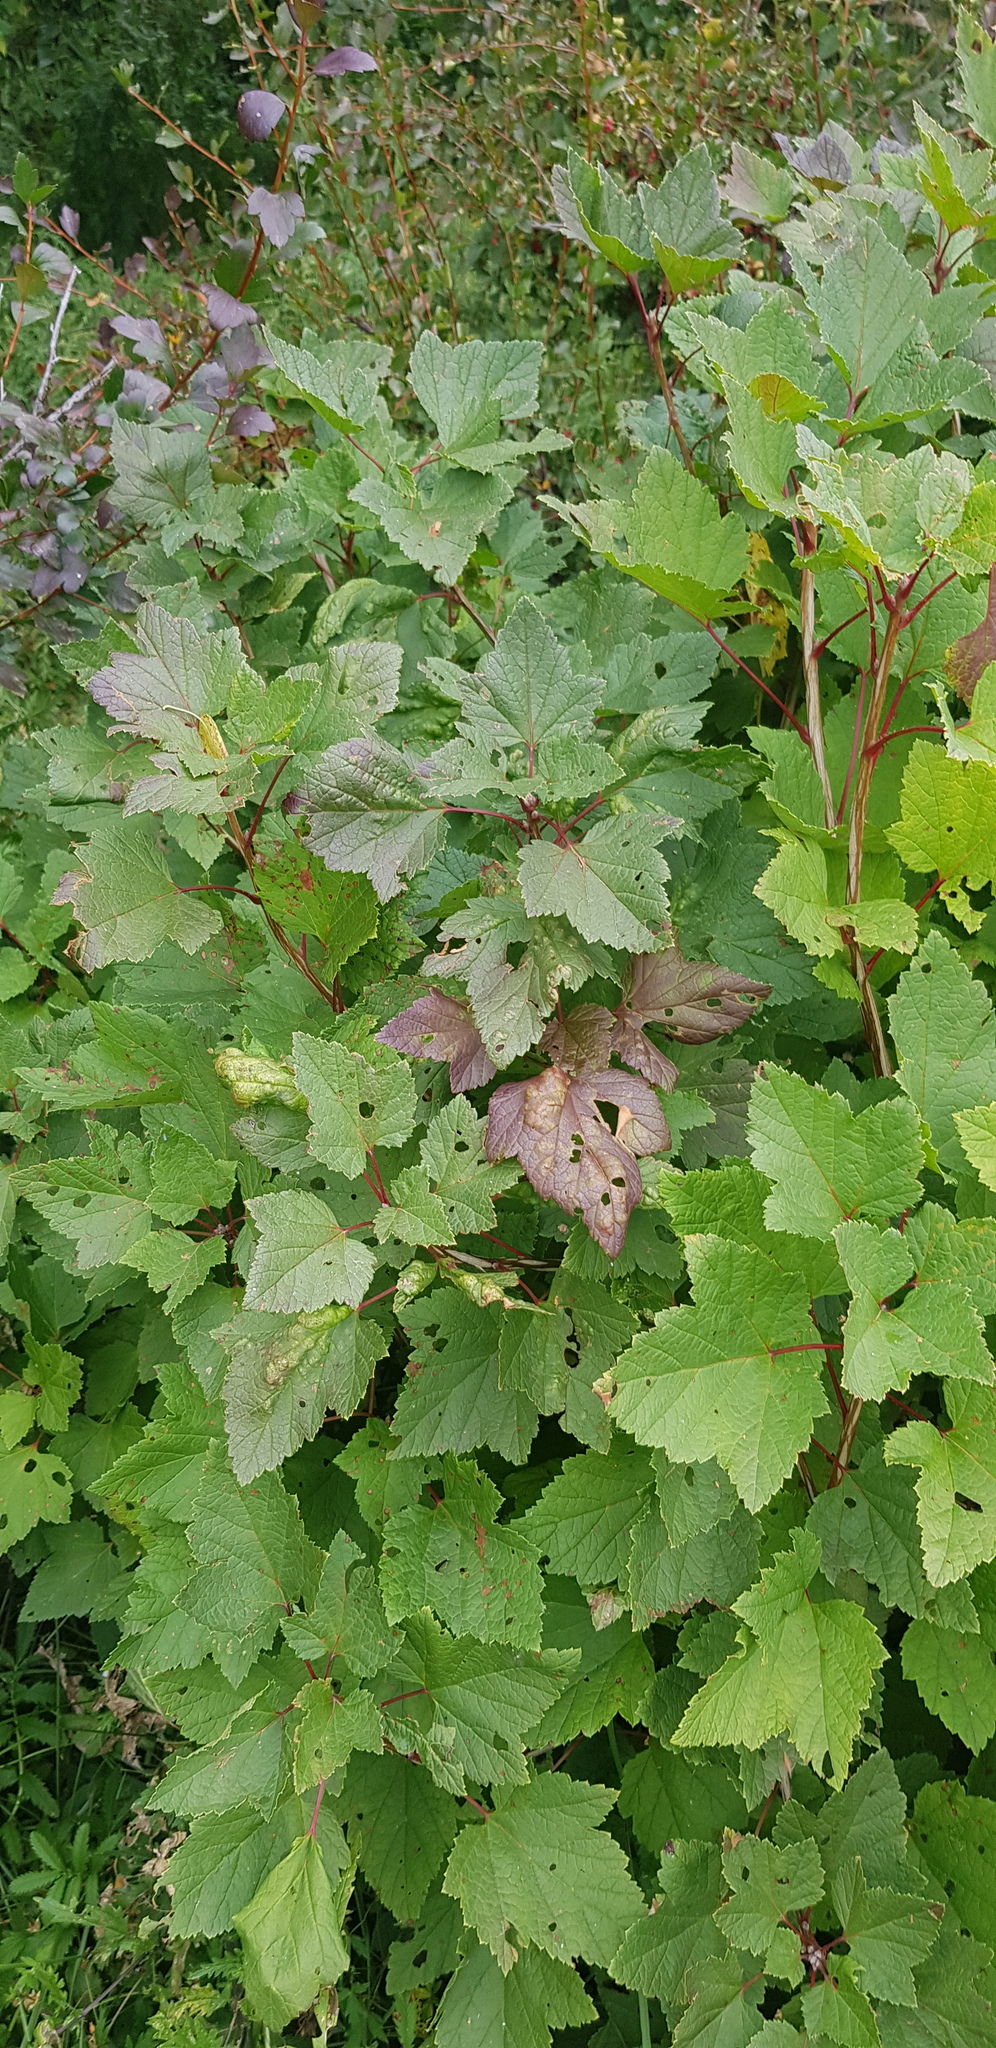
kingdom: Plantae
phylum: Tracheophyta
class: Magnoliopsida
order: Saxifragales
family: Grossulariaceae
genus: Ribes
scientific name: Ribes petraeum
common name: Rock currant
